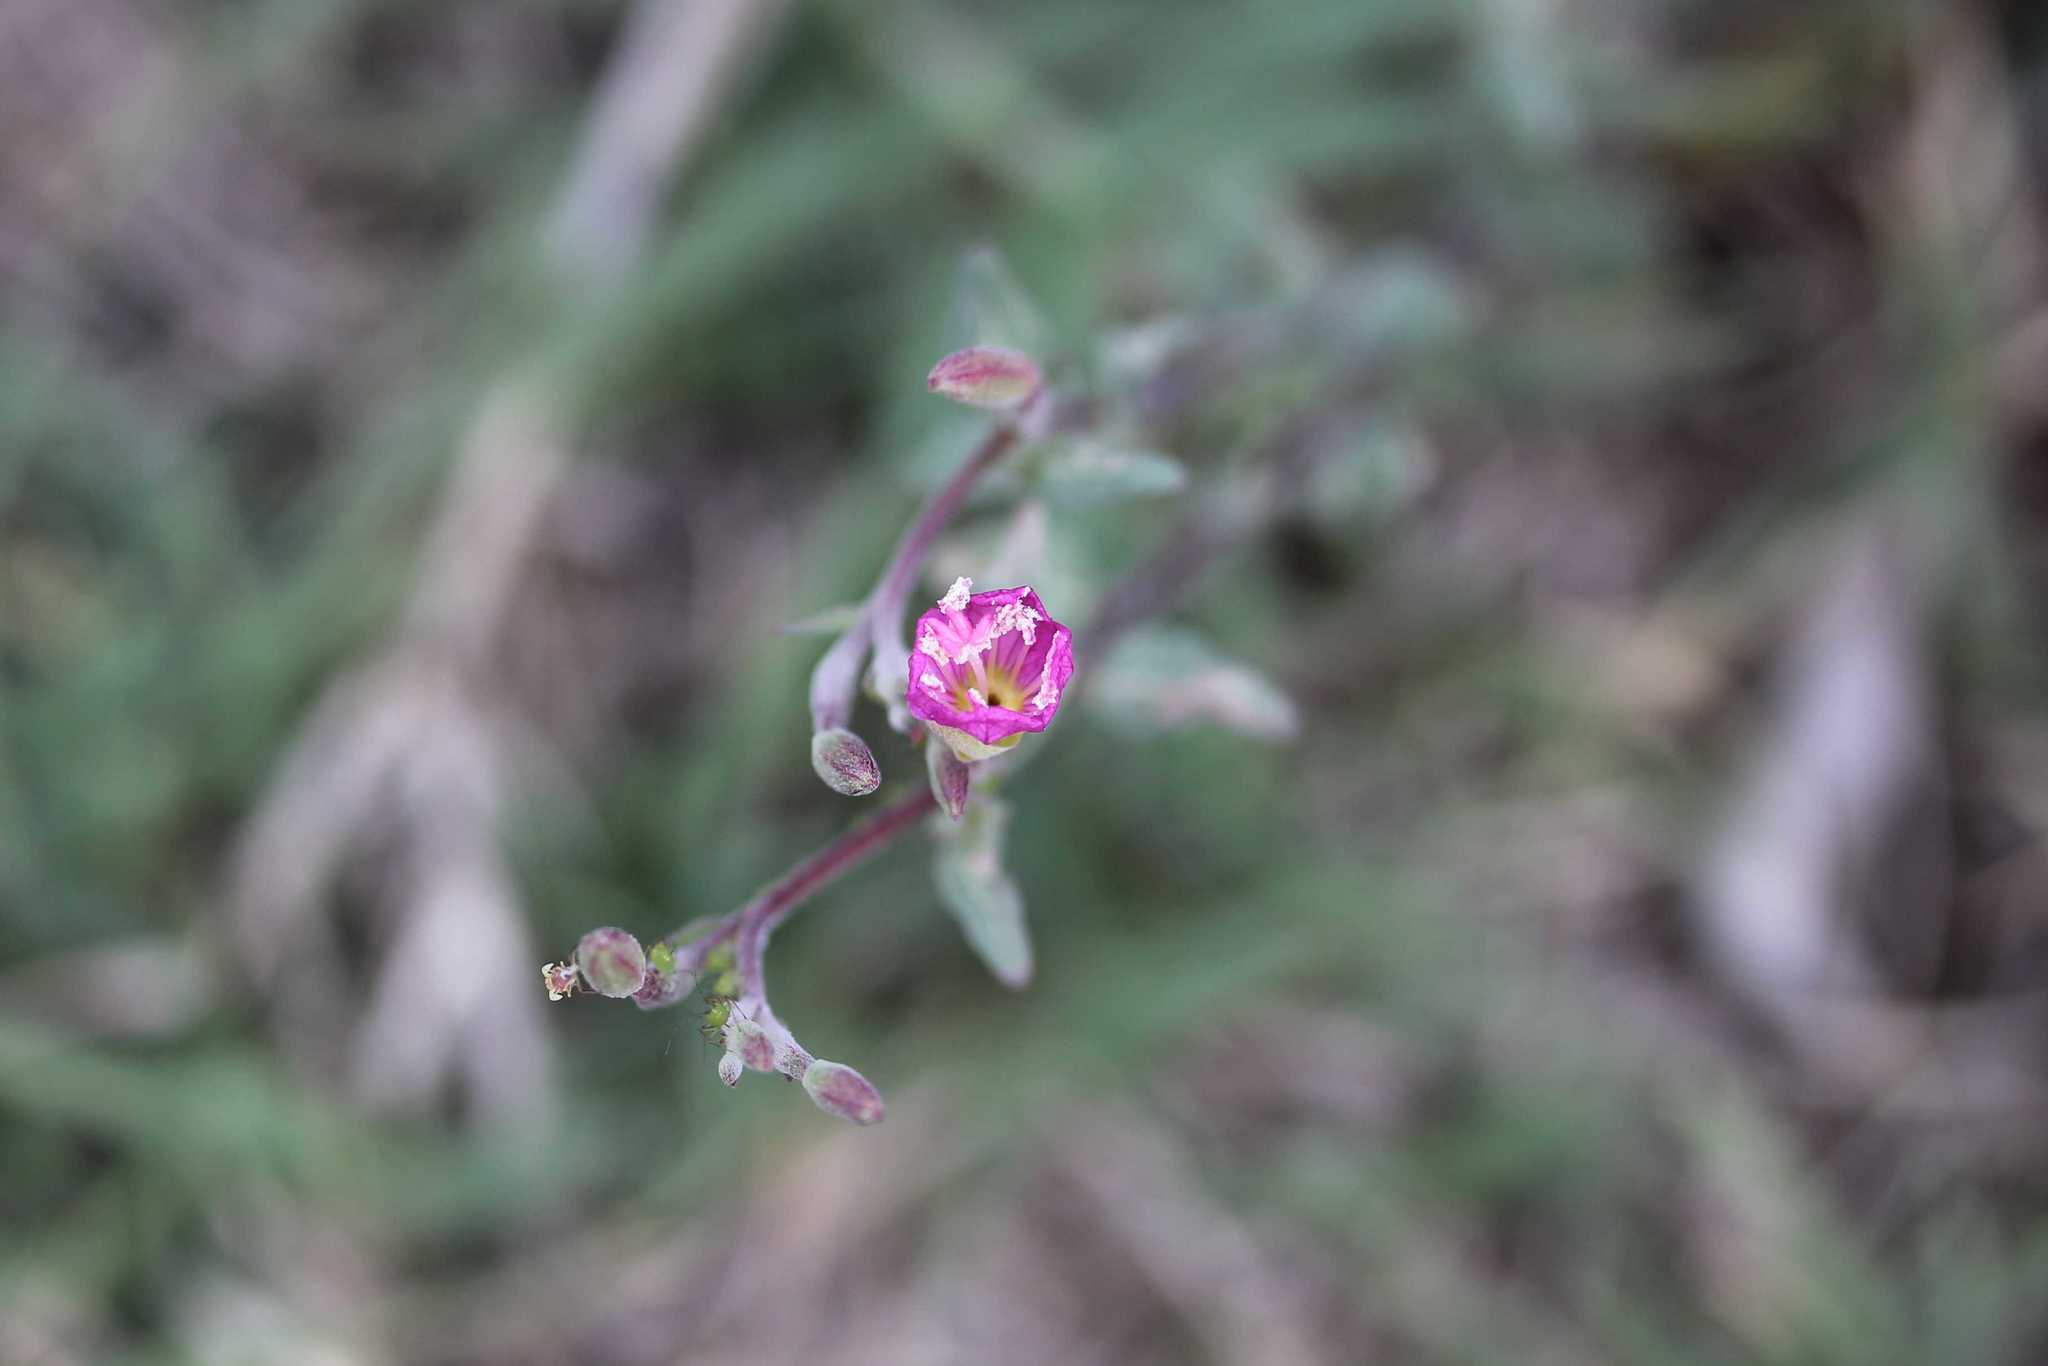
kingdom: Plantae
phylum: Tracheophyta
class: Magnoliopsida
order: Myrtales
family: Onagraceae
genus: Oenothera
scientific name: Oenothera rosea
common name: Rosy evening-primrose
